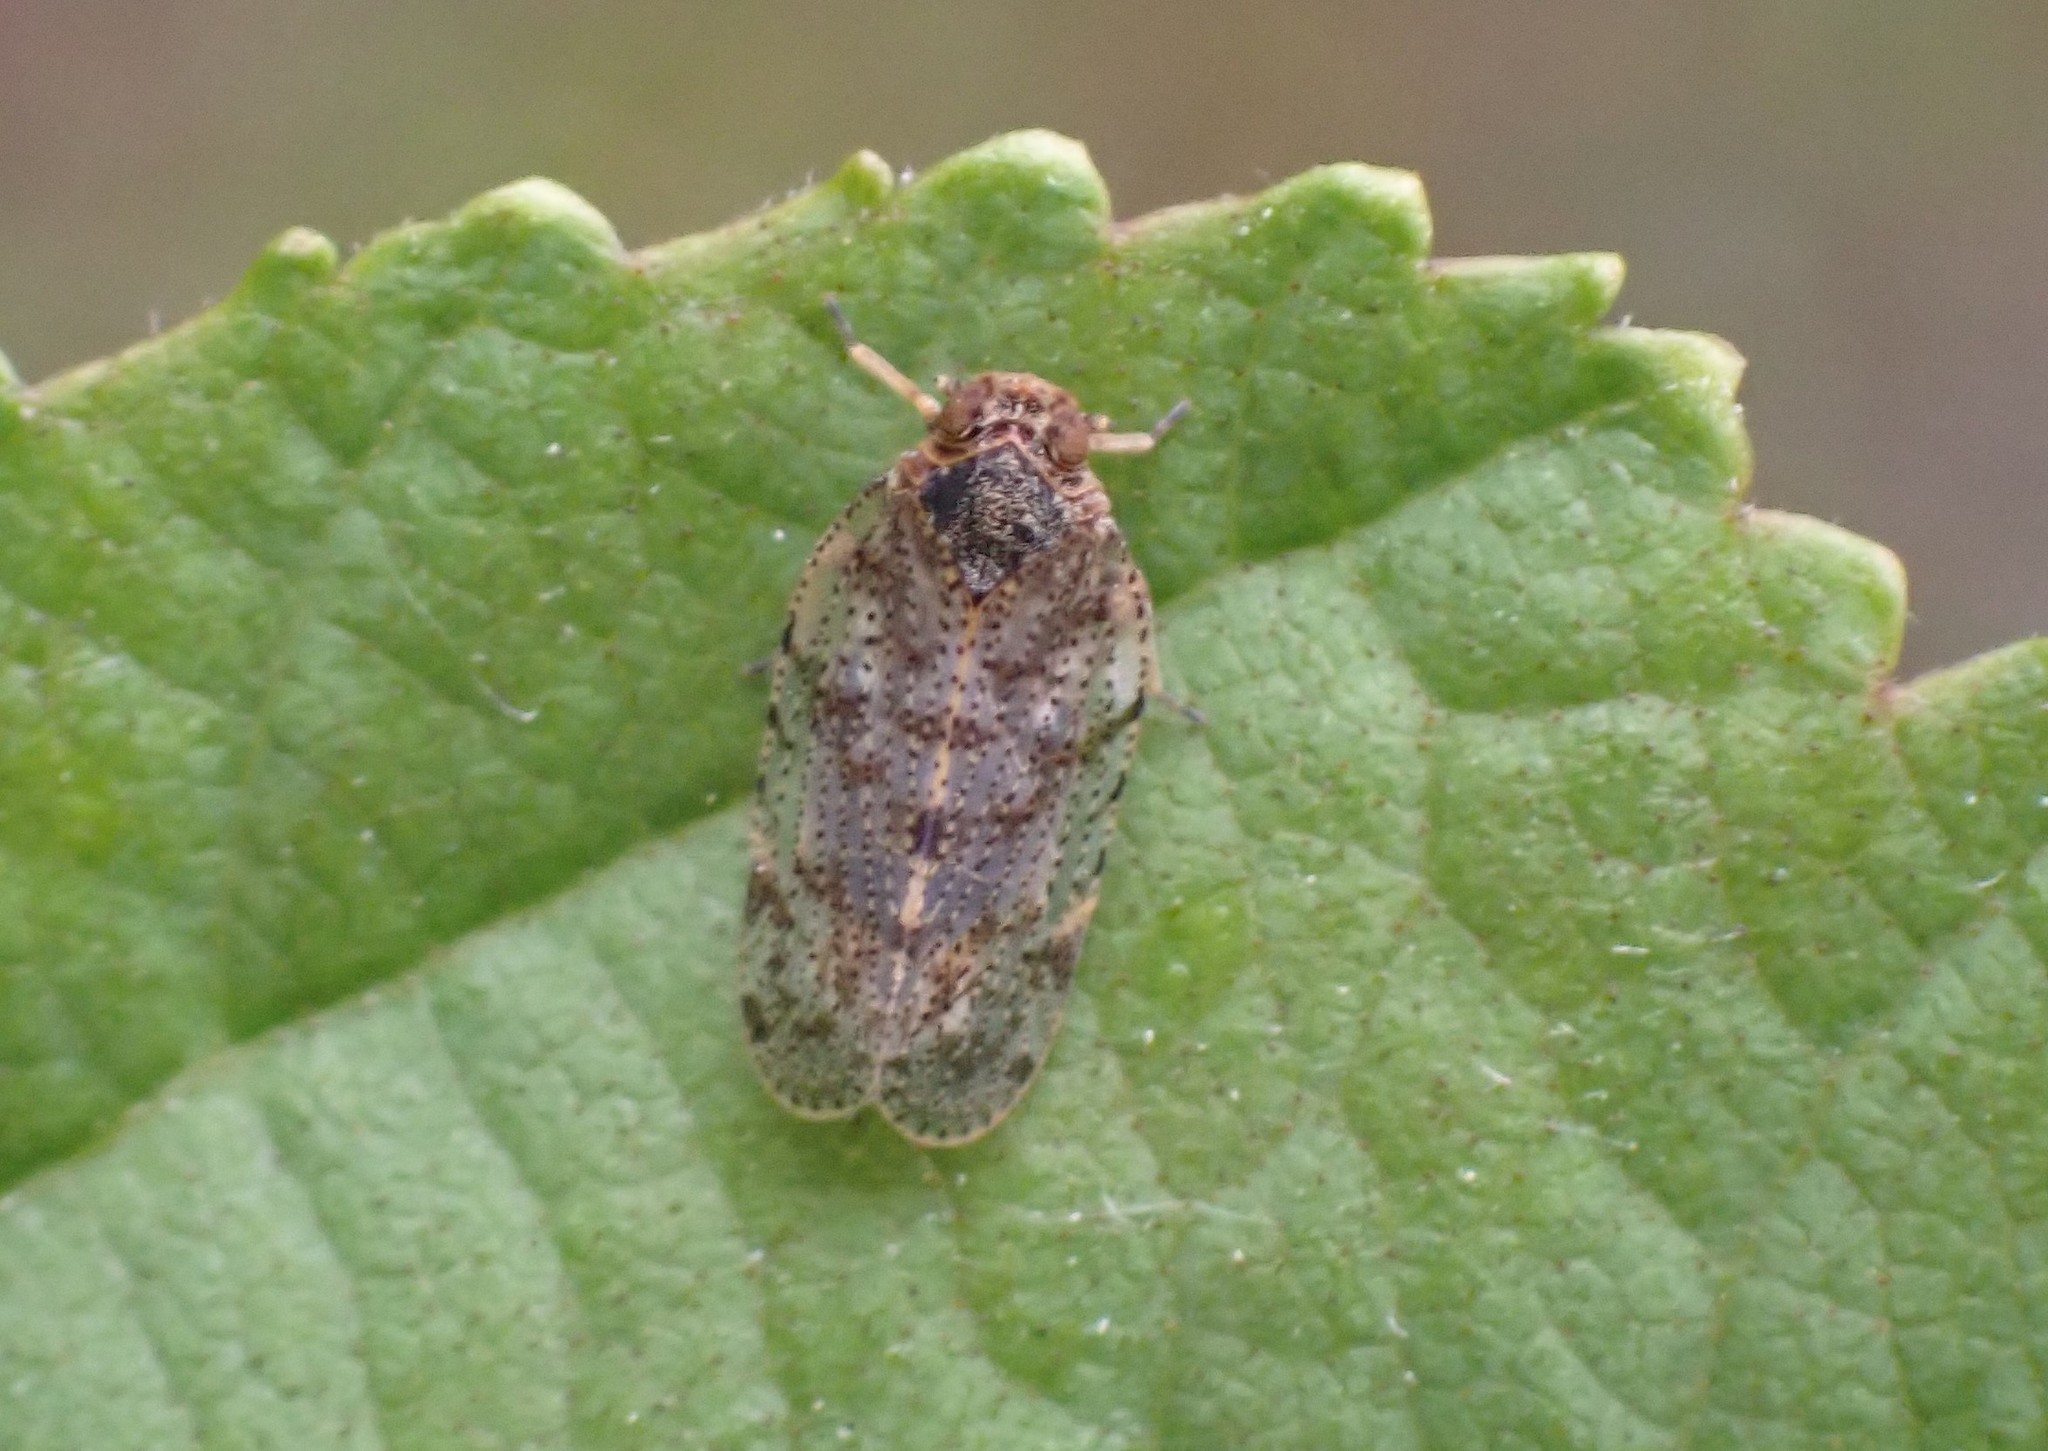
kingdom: Animalia
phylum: Arthropoda
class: Insecta
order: Hemiptera
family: Cixiidae
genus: Tachycixius
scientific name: Tachycixius pilosus
